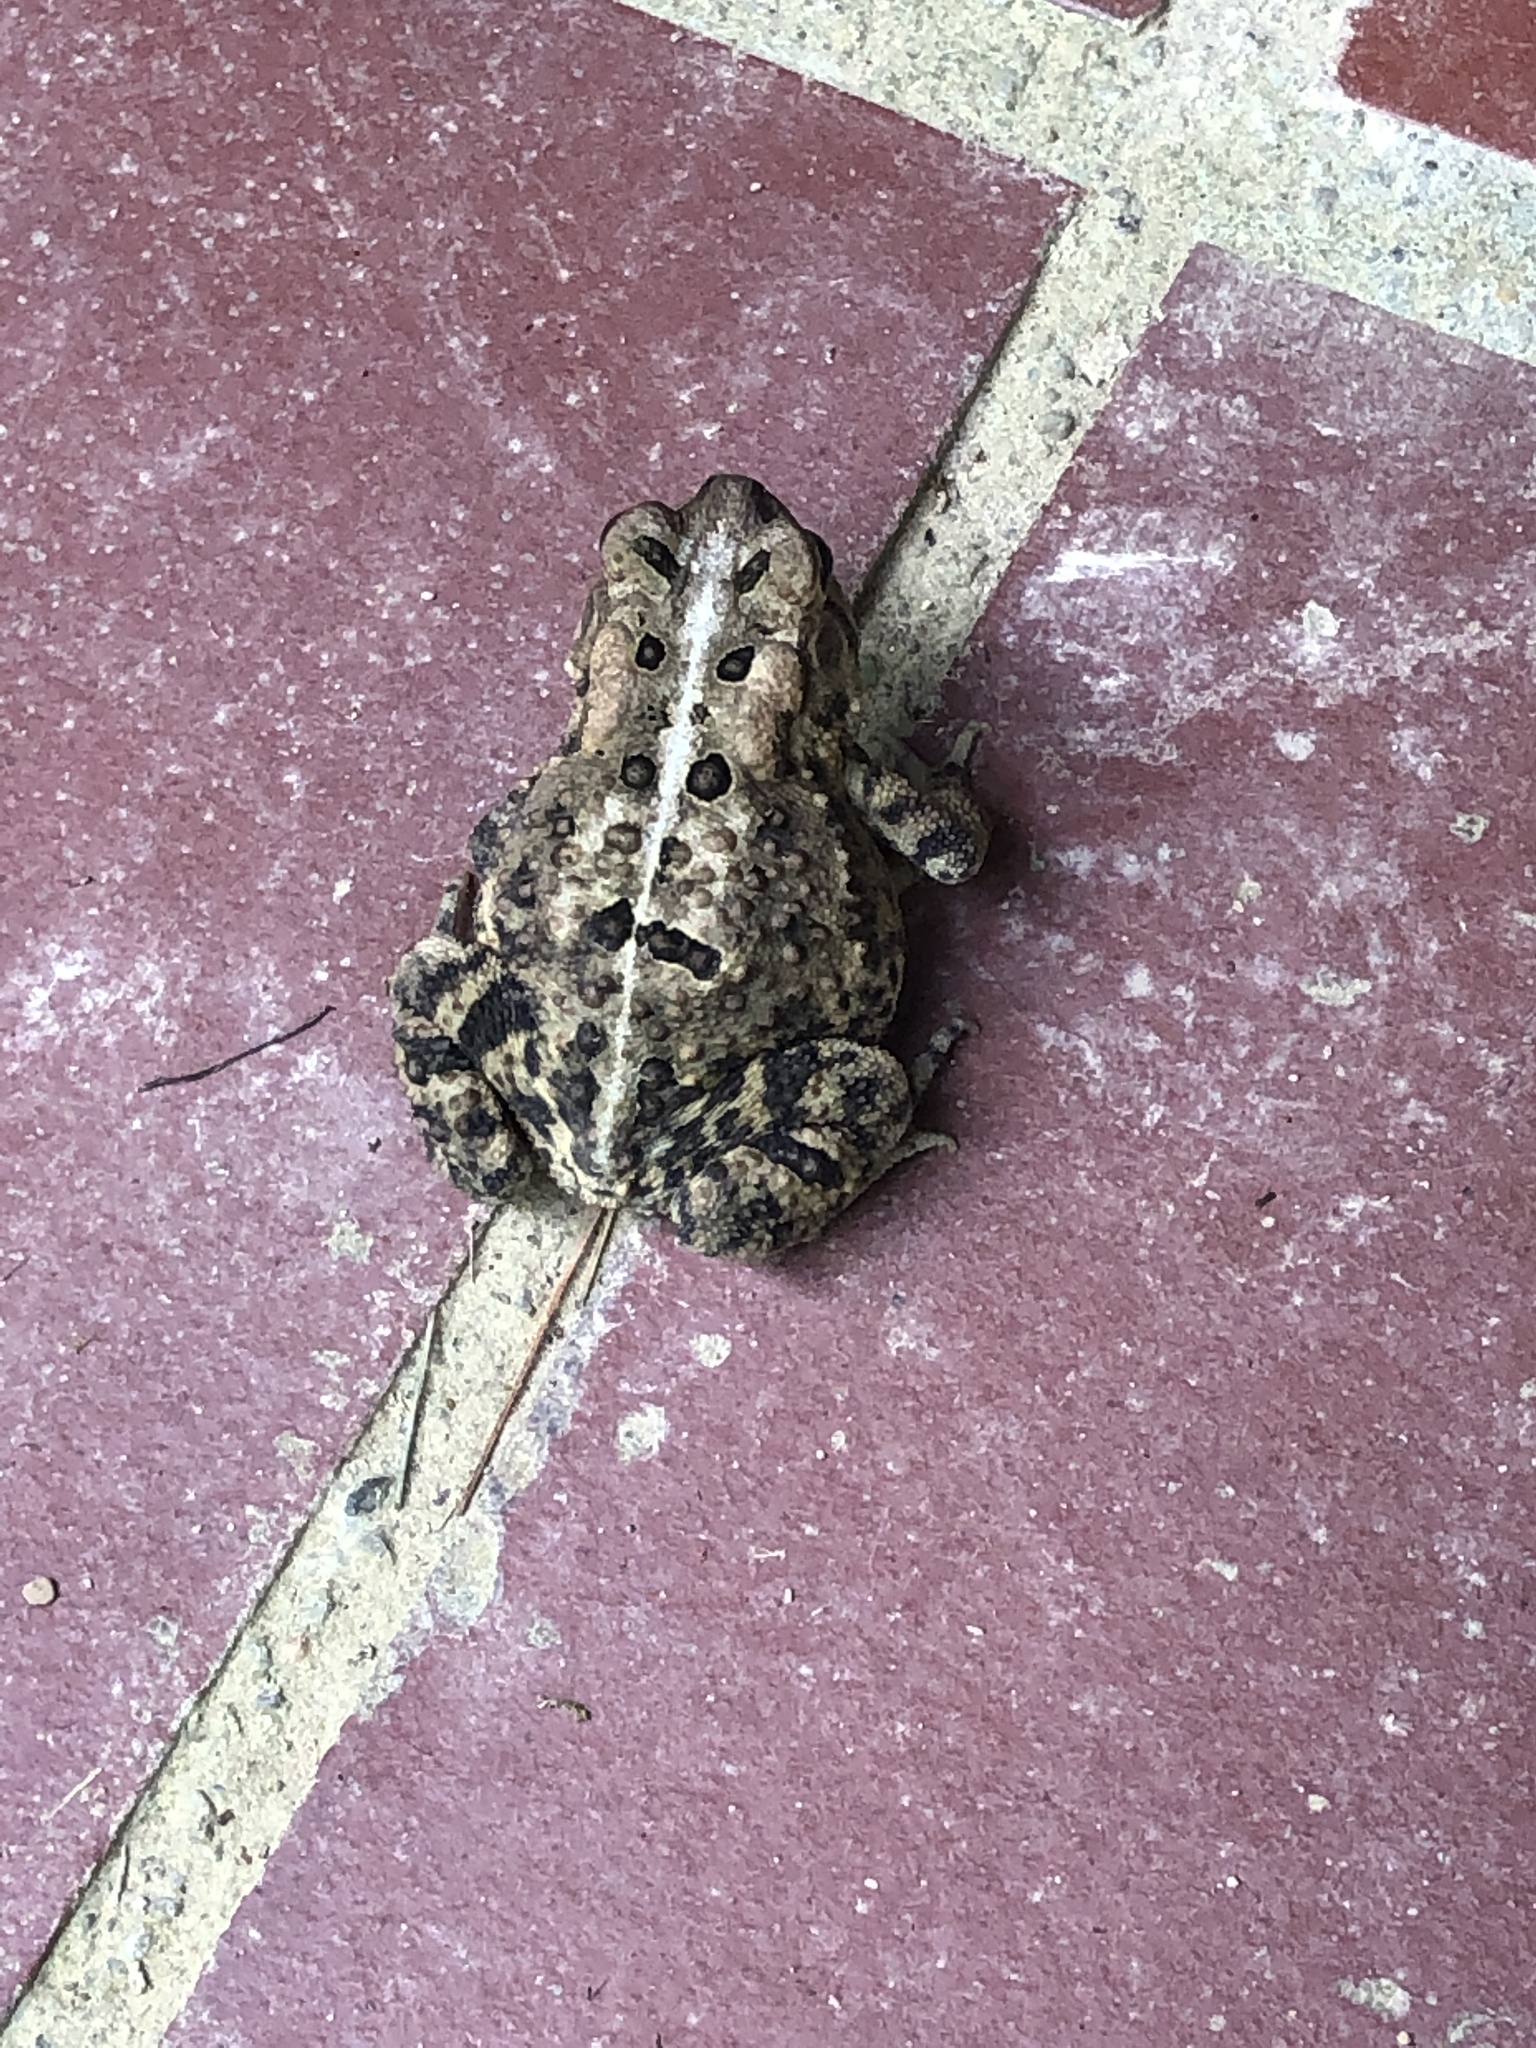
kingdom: Animalia
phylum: Chordata
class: Amphibia
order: Anura
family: Bufonidae
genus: Anaxyrus
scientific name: Anaxyrus americanus
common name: American toad
